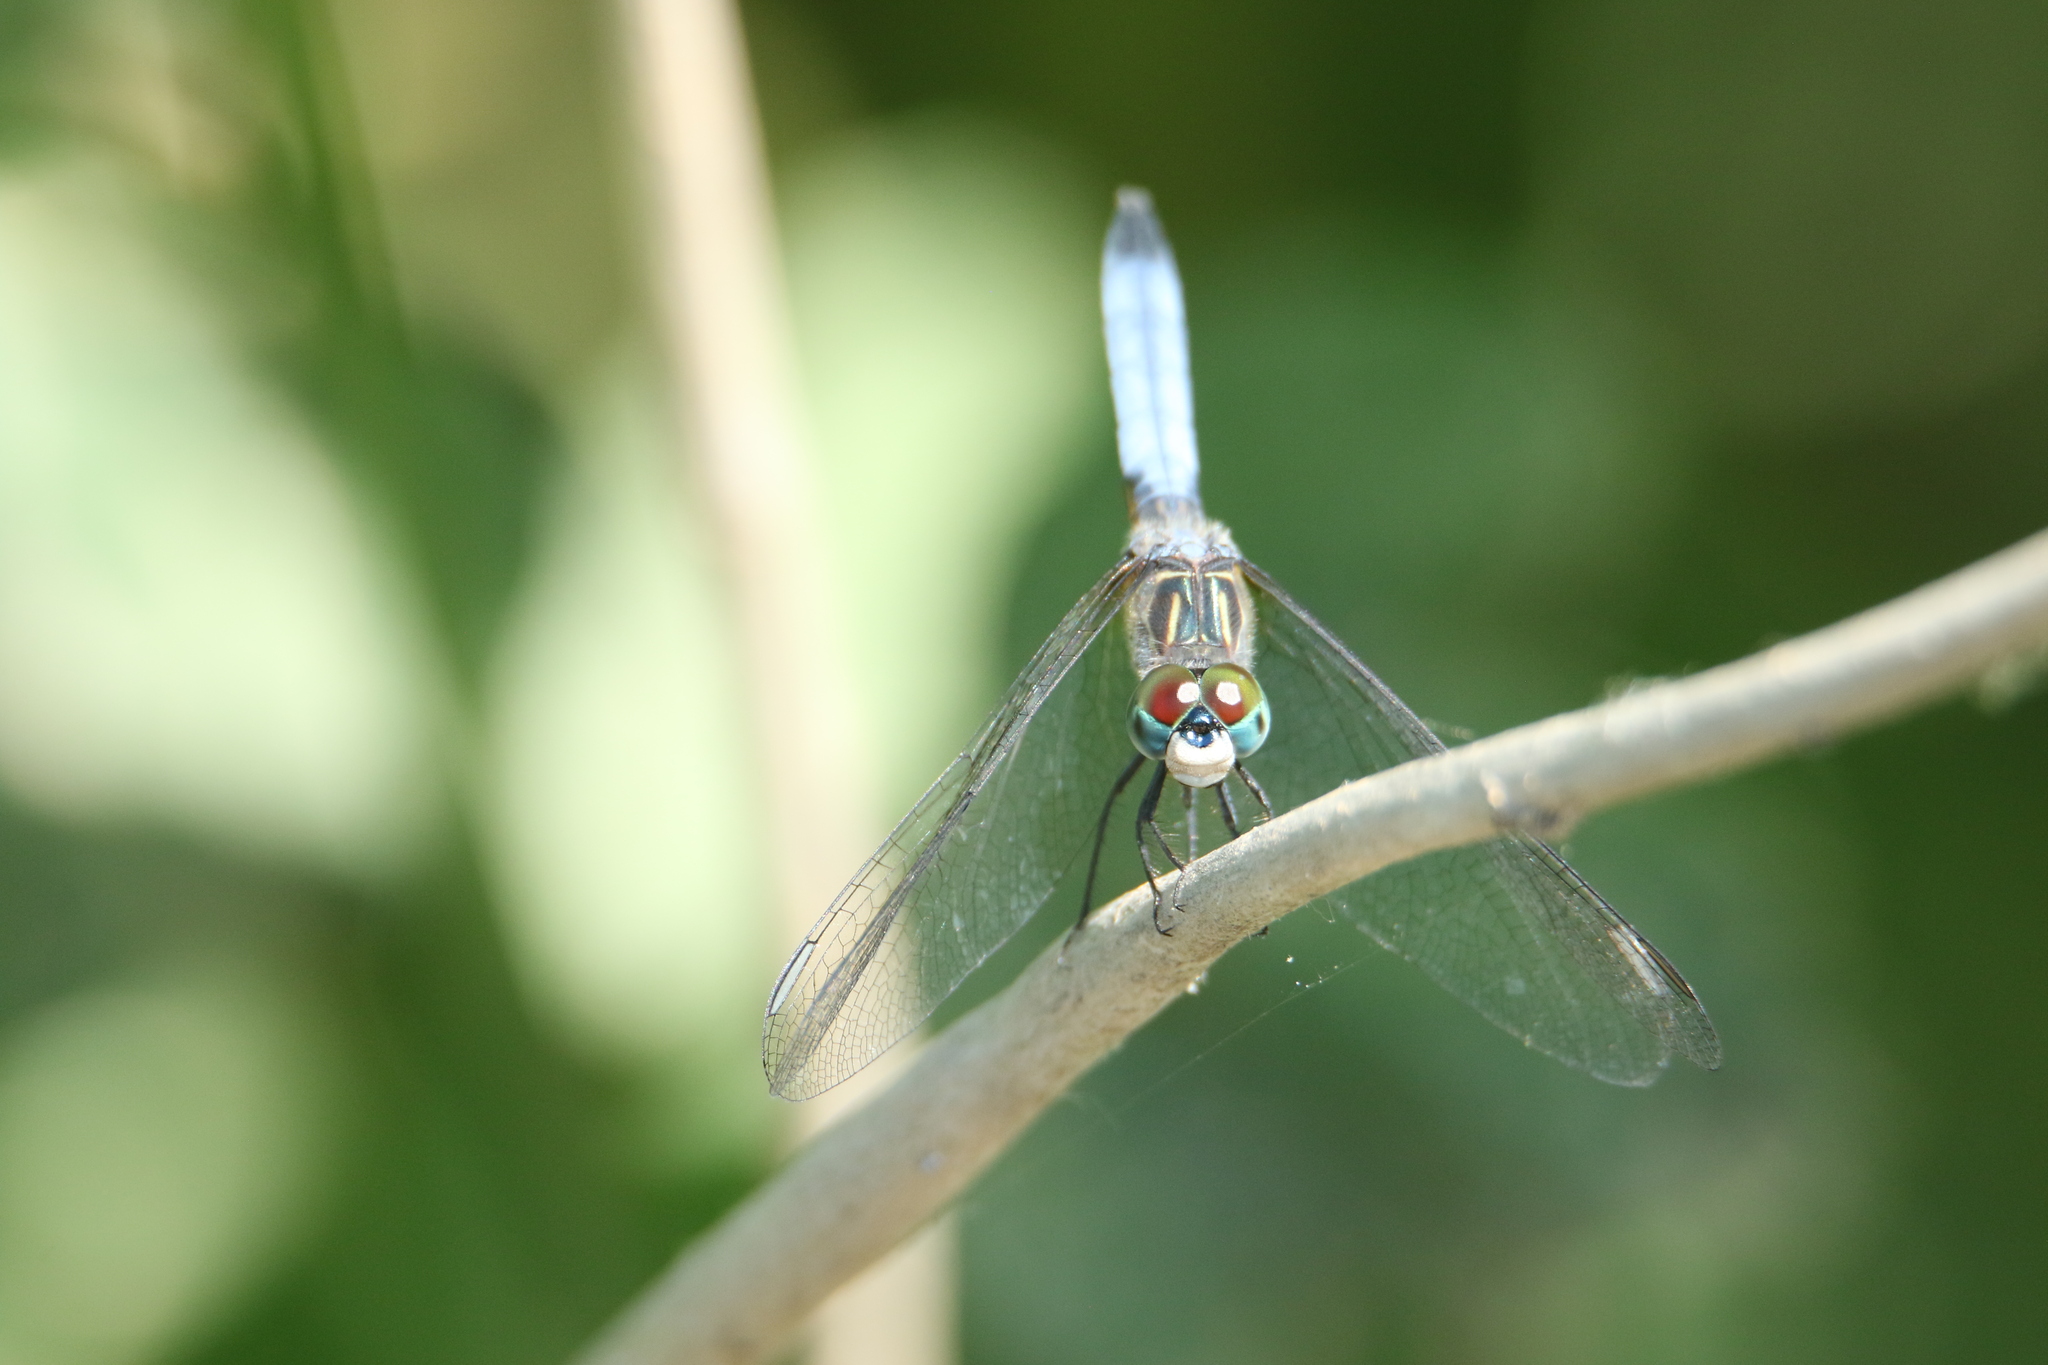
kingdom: Animalia
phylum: Arthropoda
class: Insecta
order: Odonata
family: Libellulidae
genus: Pachydiplax
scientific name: Pachydiplax longipennis
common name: Blue dasher
